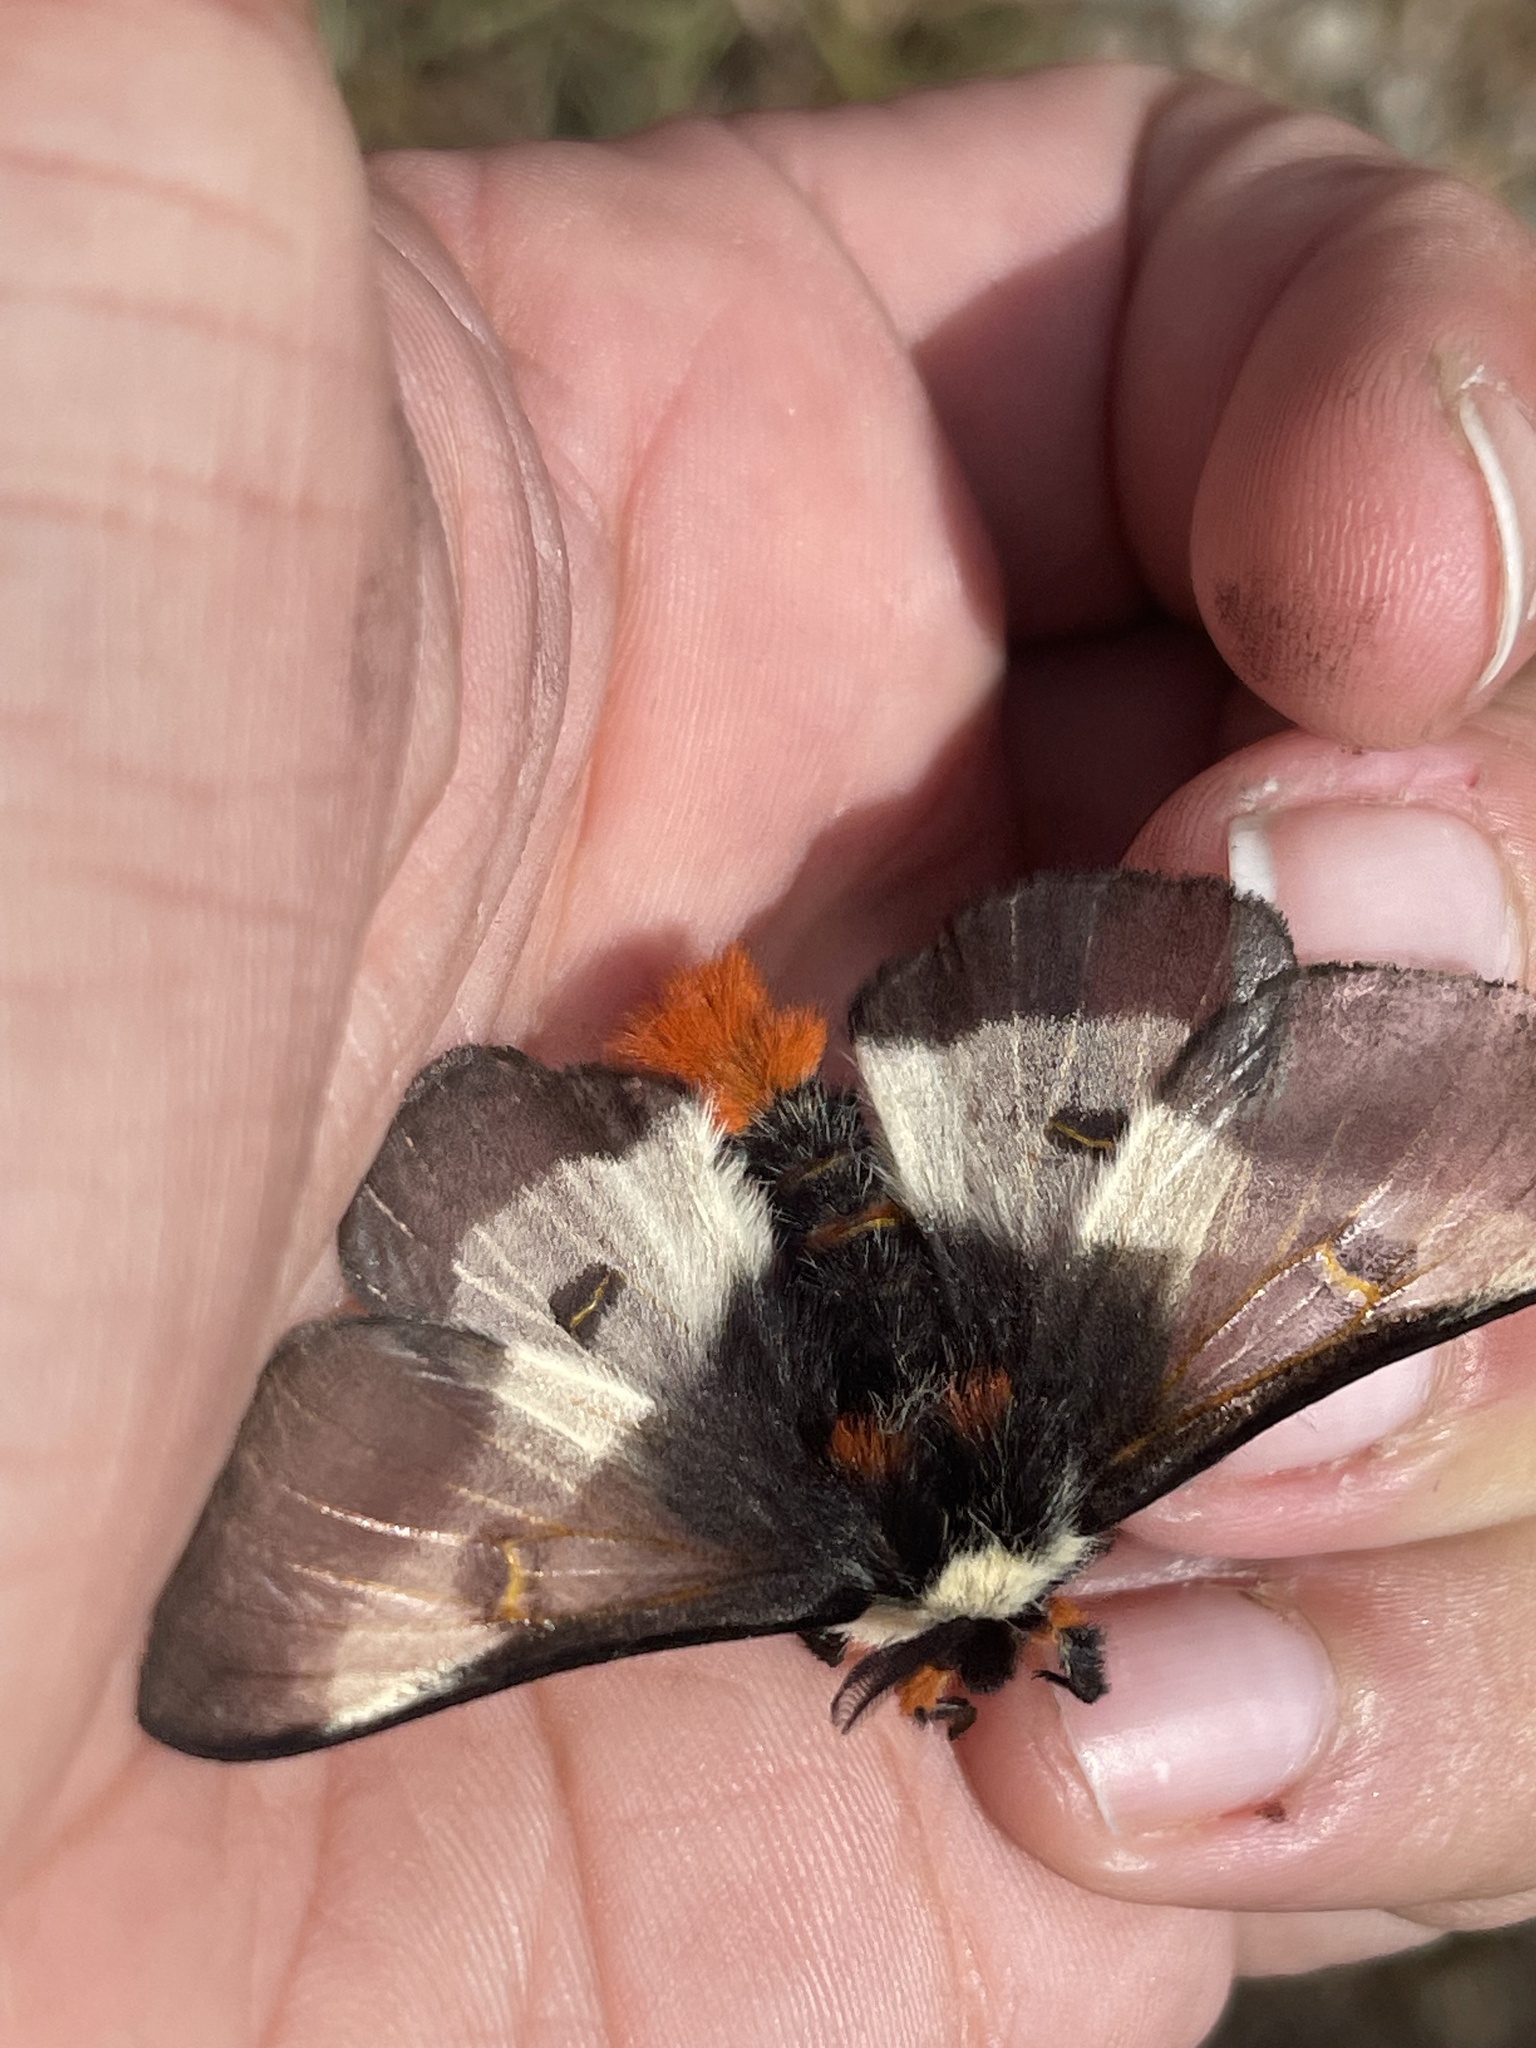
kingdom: Animalia
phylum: Arthropoda
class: Insecta
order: Lepidoptera
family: Saturniidae
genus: Hemileuca
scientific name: Hemileuca lucina
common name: New england buckmoth
